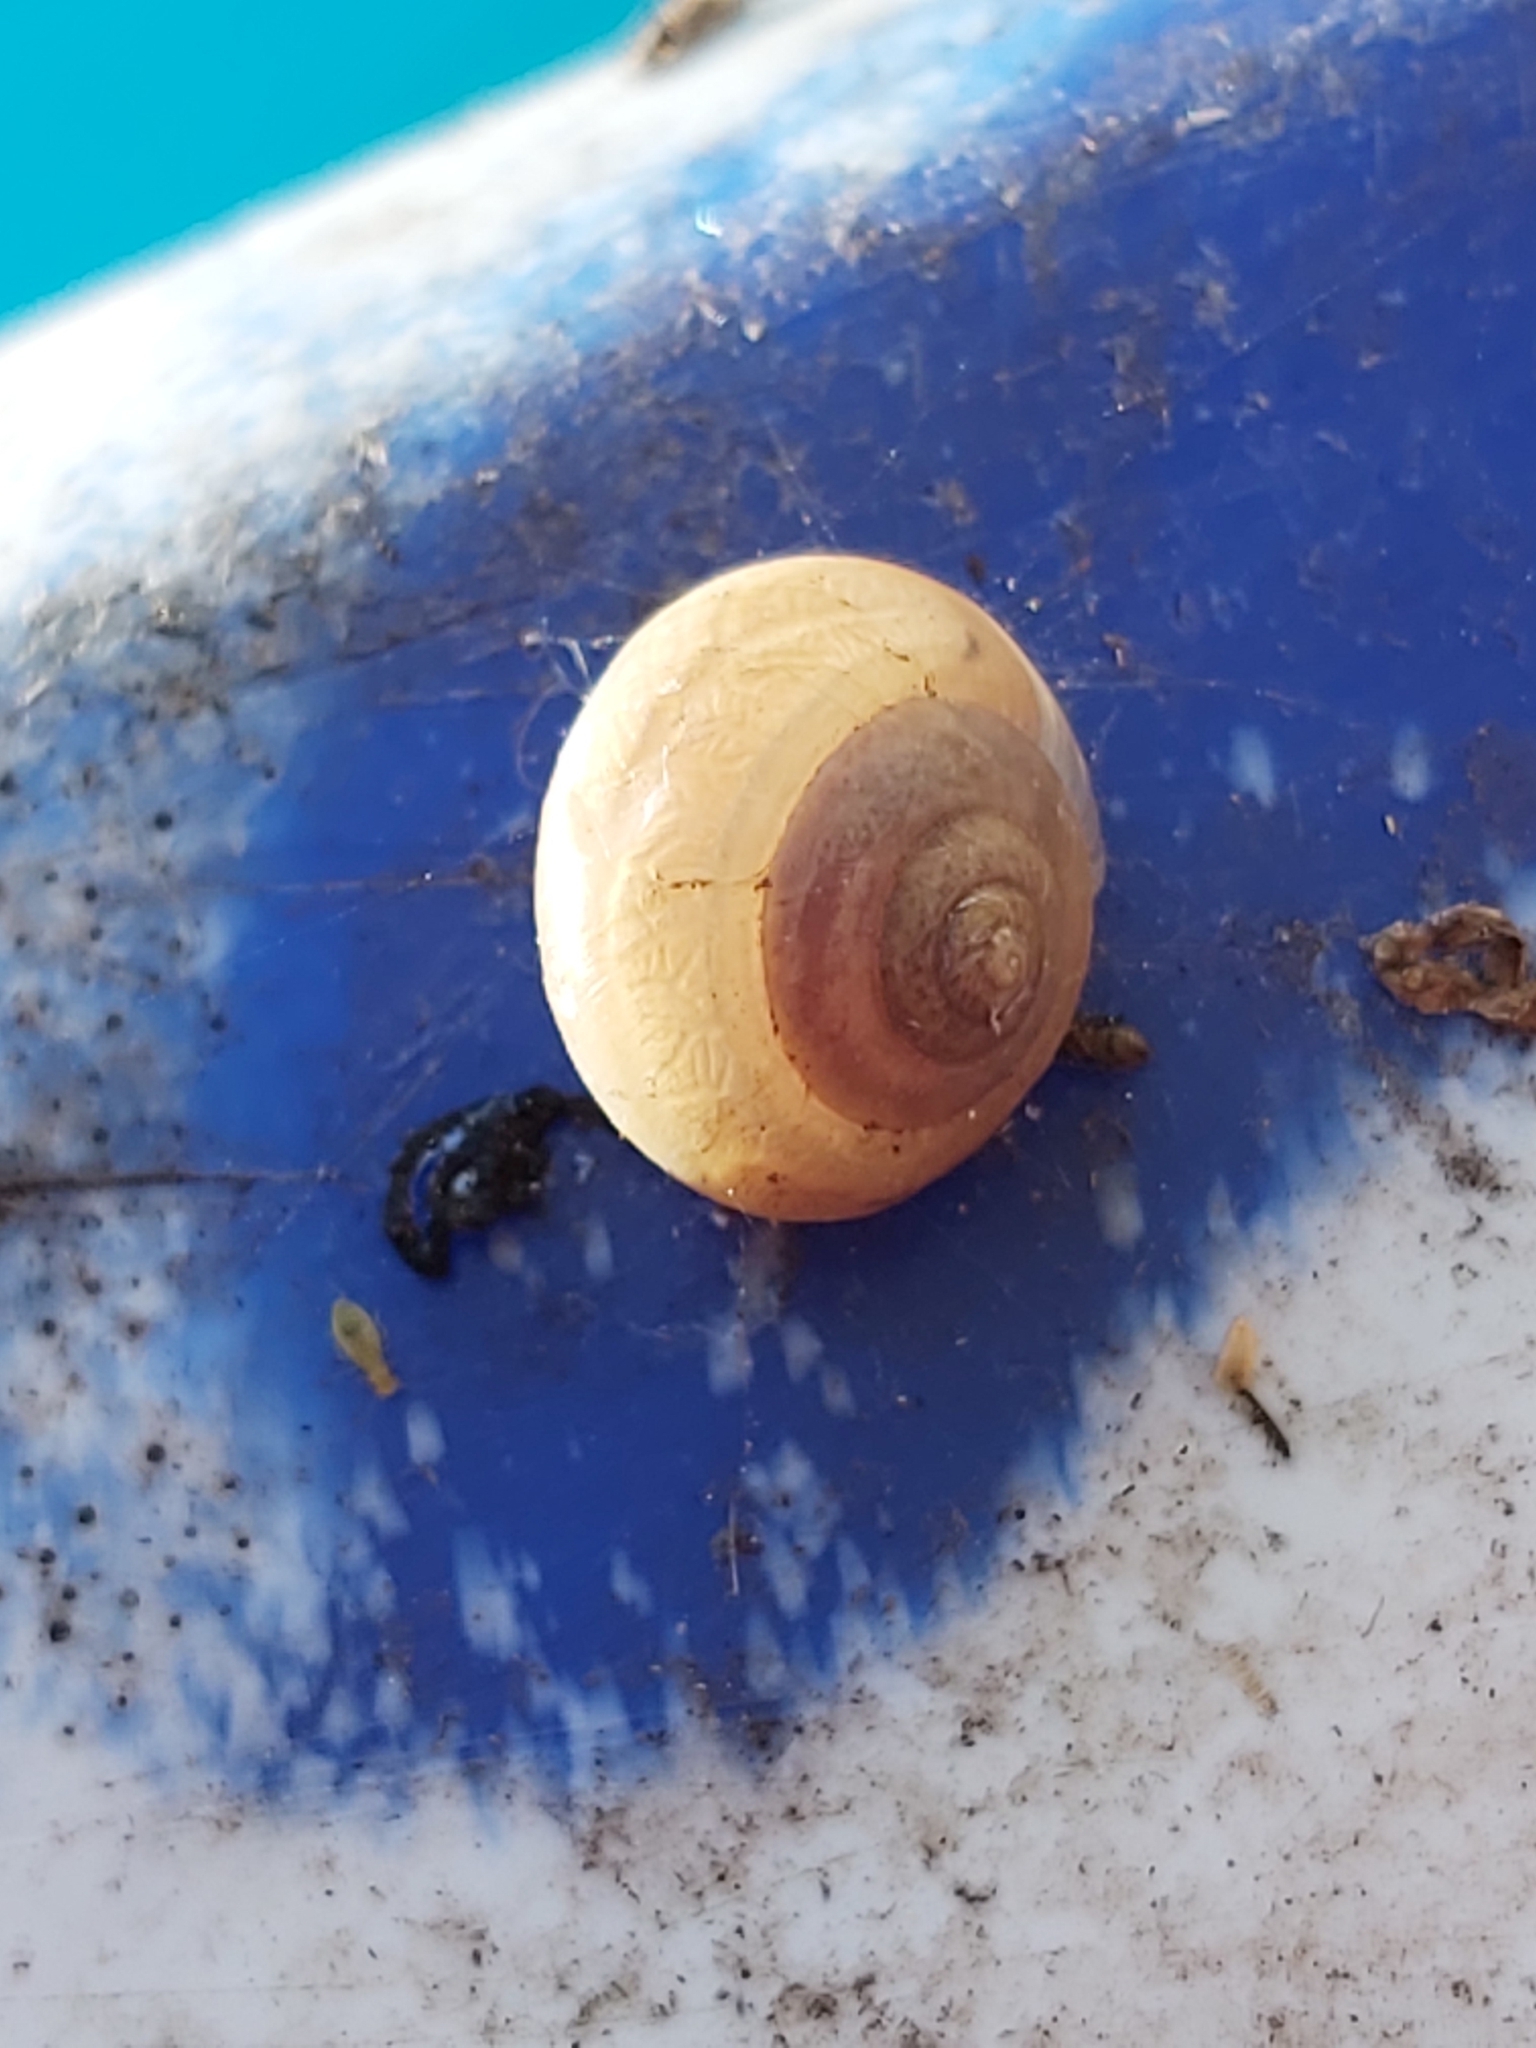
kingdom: Animalia
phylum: Mollusca
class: Gastropoda
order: Stylommatophora
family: Camaenidae
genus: Bradybaena
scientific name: Bradybaena similaris
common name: Asian trampsnail
